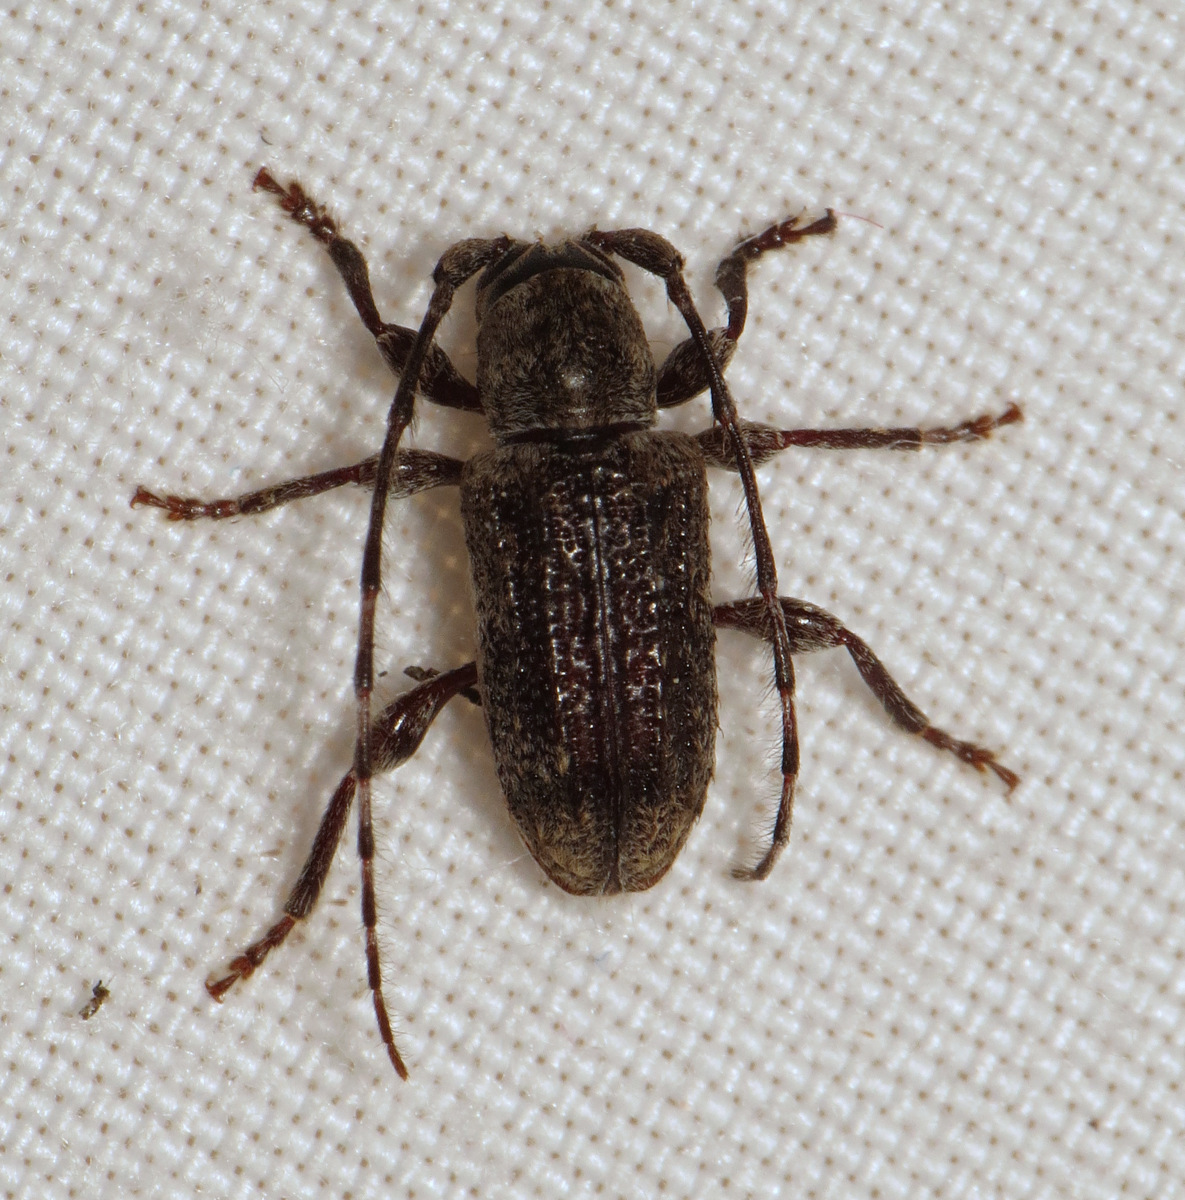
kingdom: Animalia
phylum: Arthropoda
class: Insecta
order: Coleoptera
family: Cerambycidae
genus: Ecyrus
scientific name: Ecyrus dasycerus
